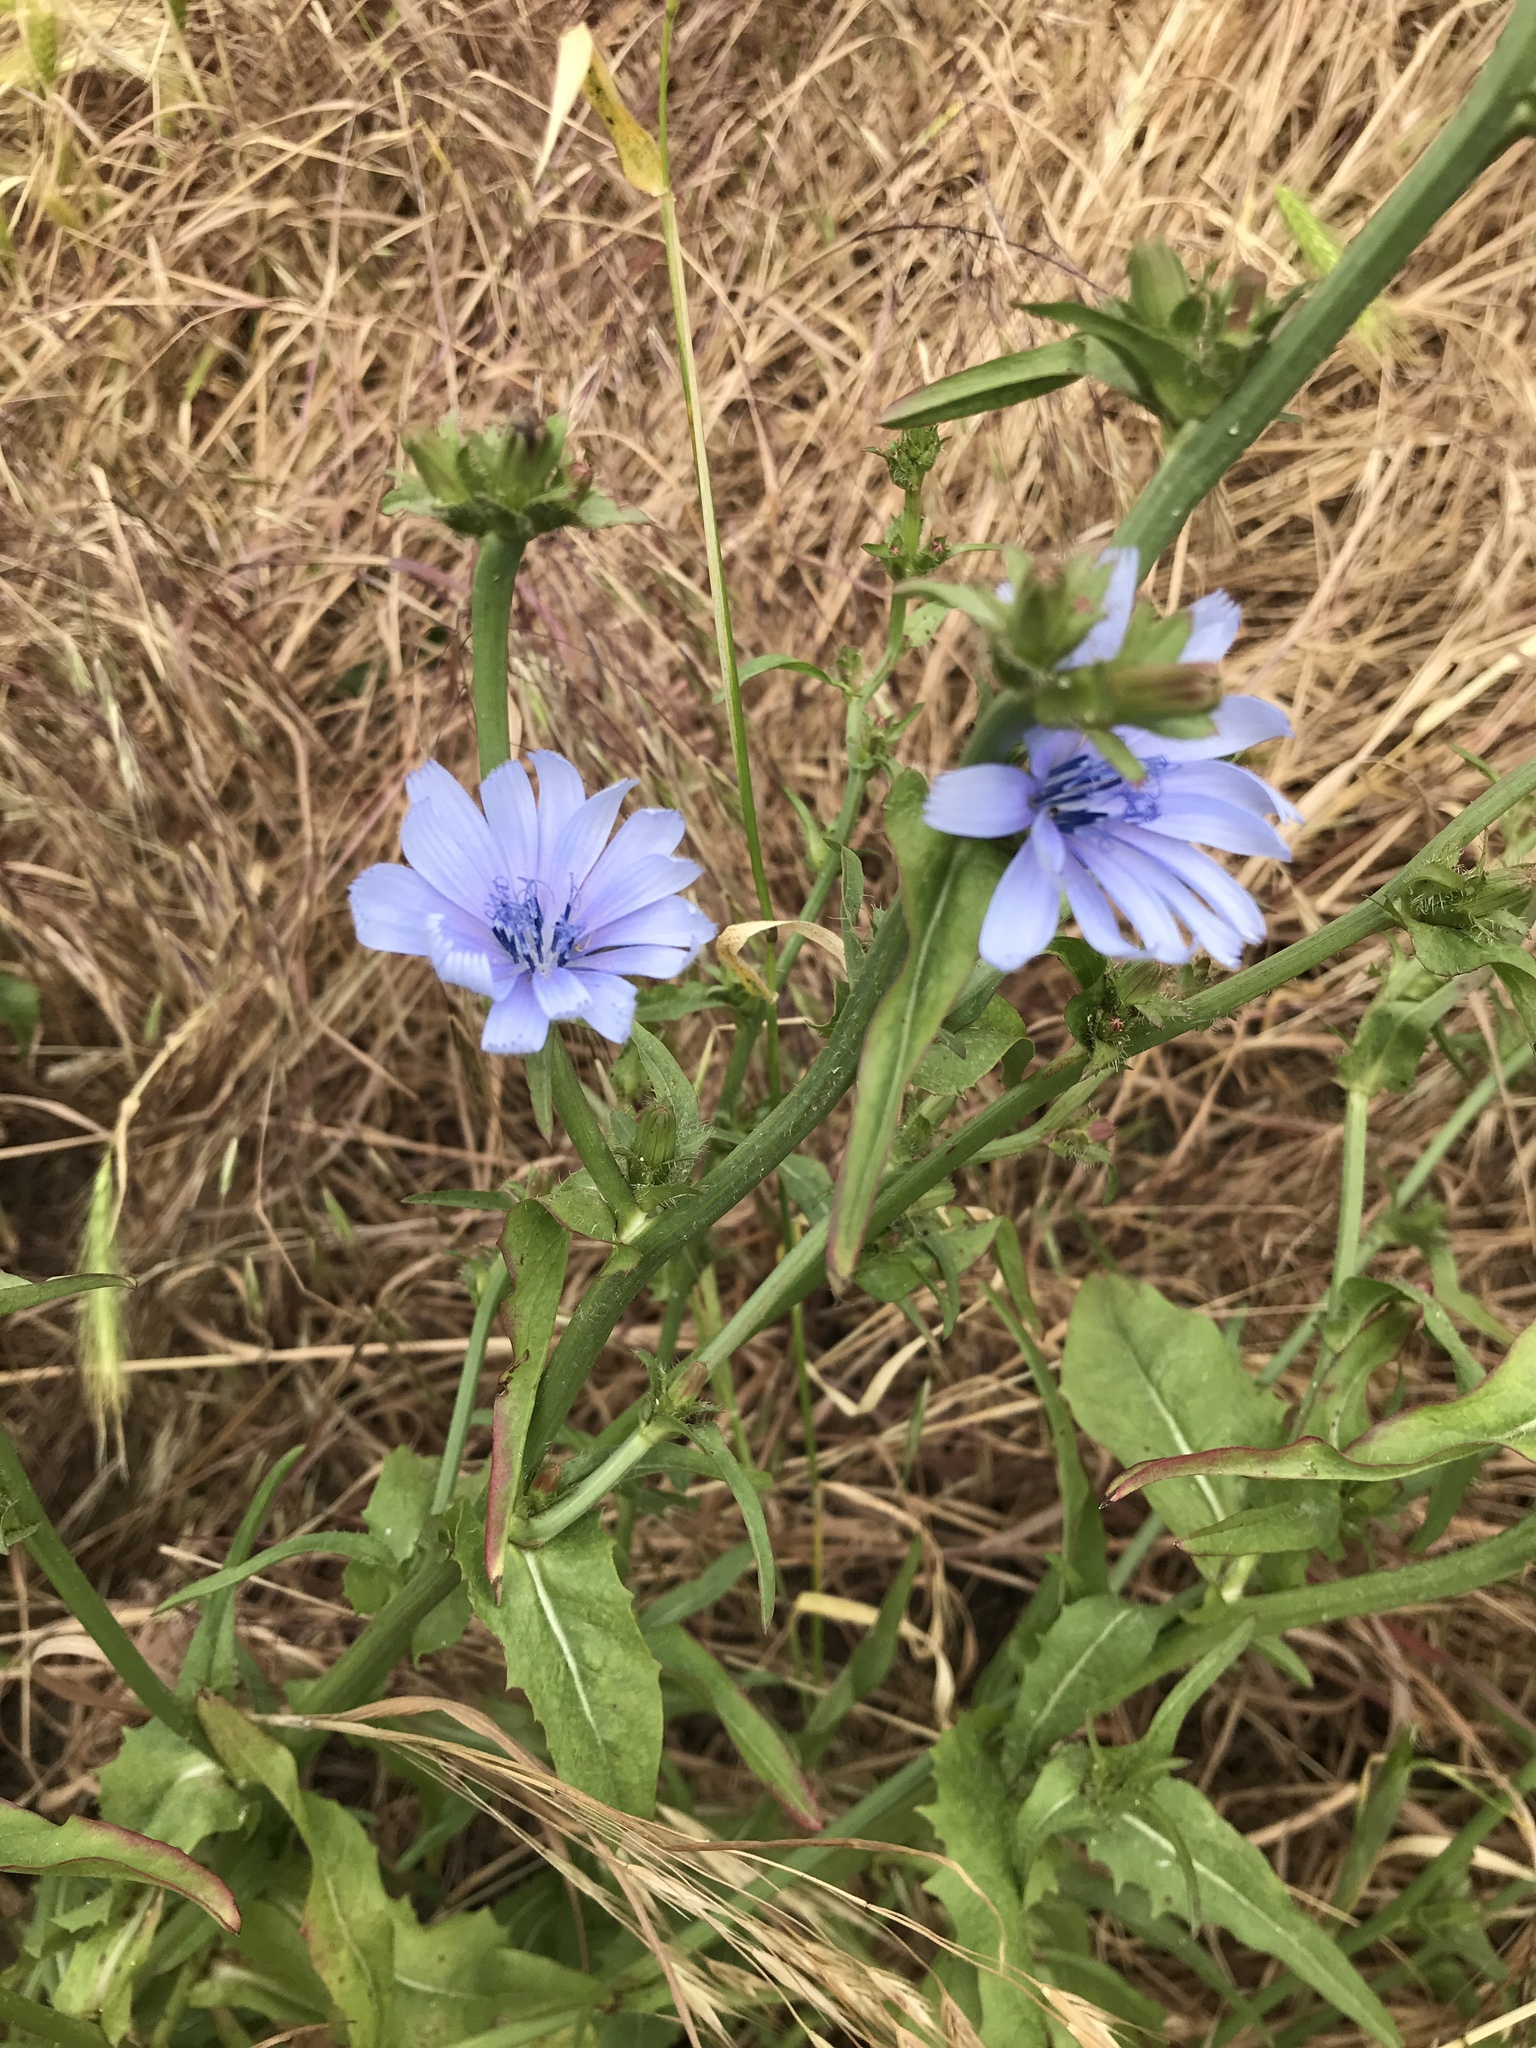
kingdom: Plantae
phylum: Tracheophyta
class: Magnoliopsida
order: Asterales
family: Asteraceae
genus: Cichorium
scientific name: Cichorium intybus
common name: Chicory
